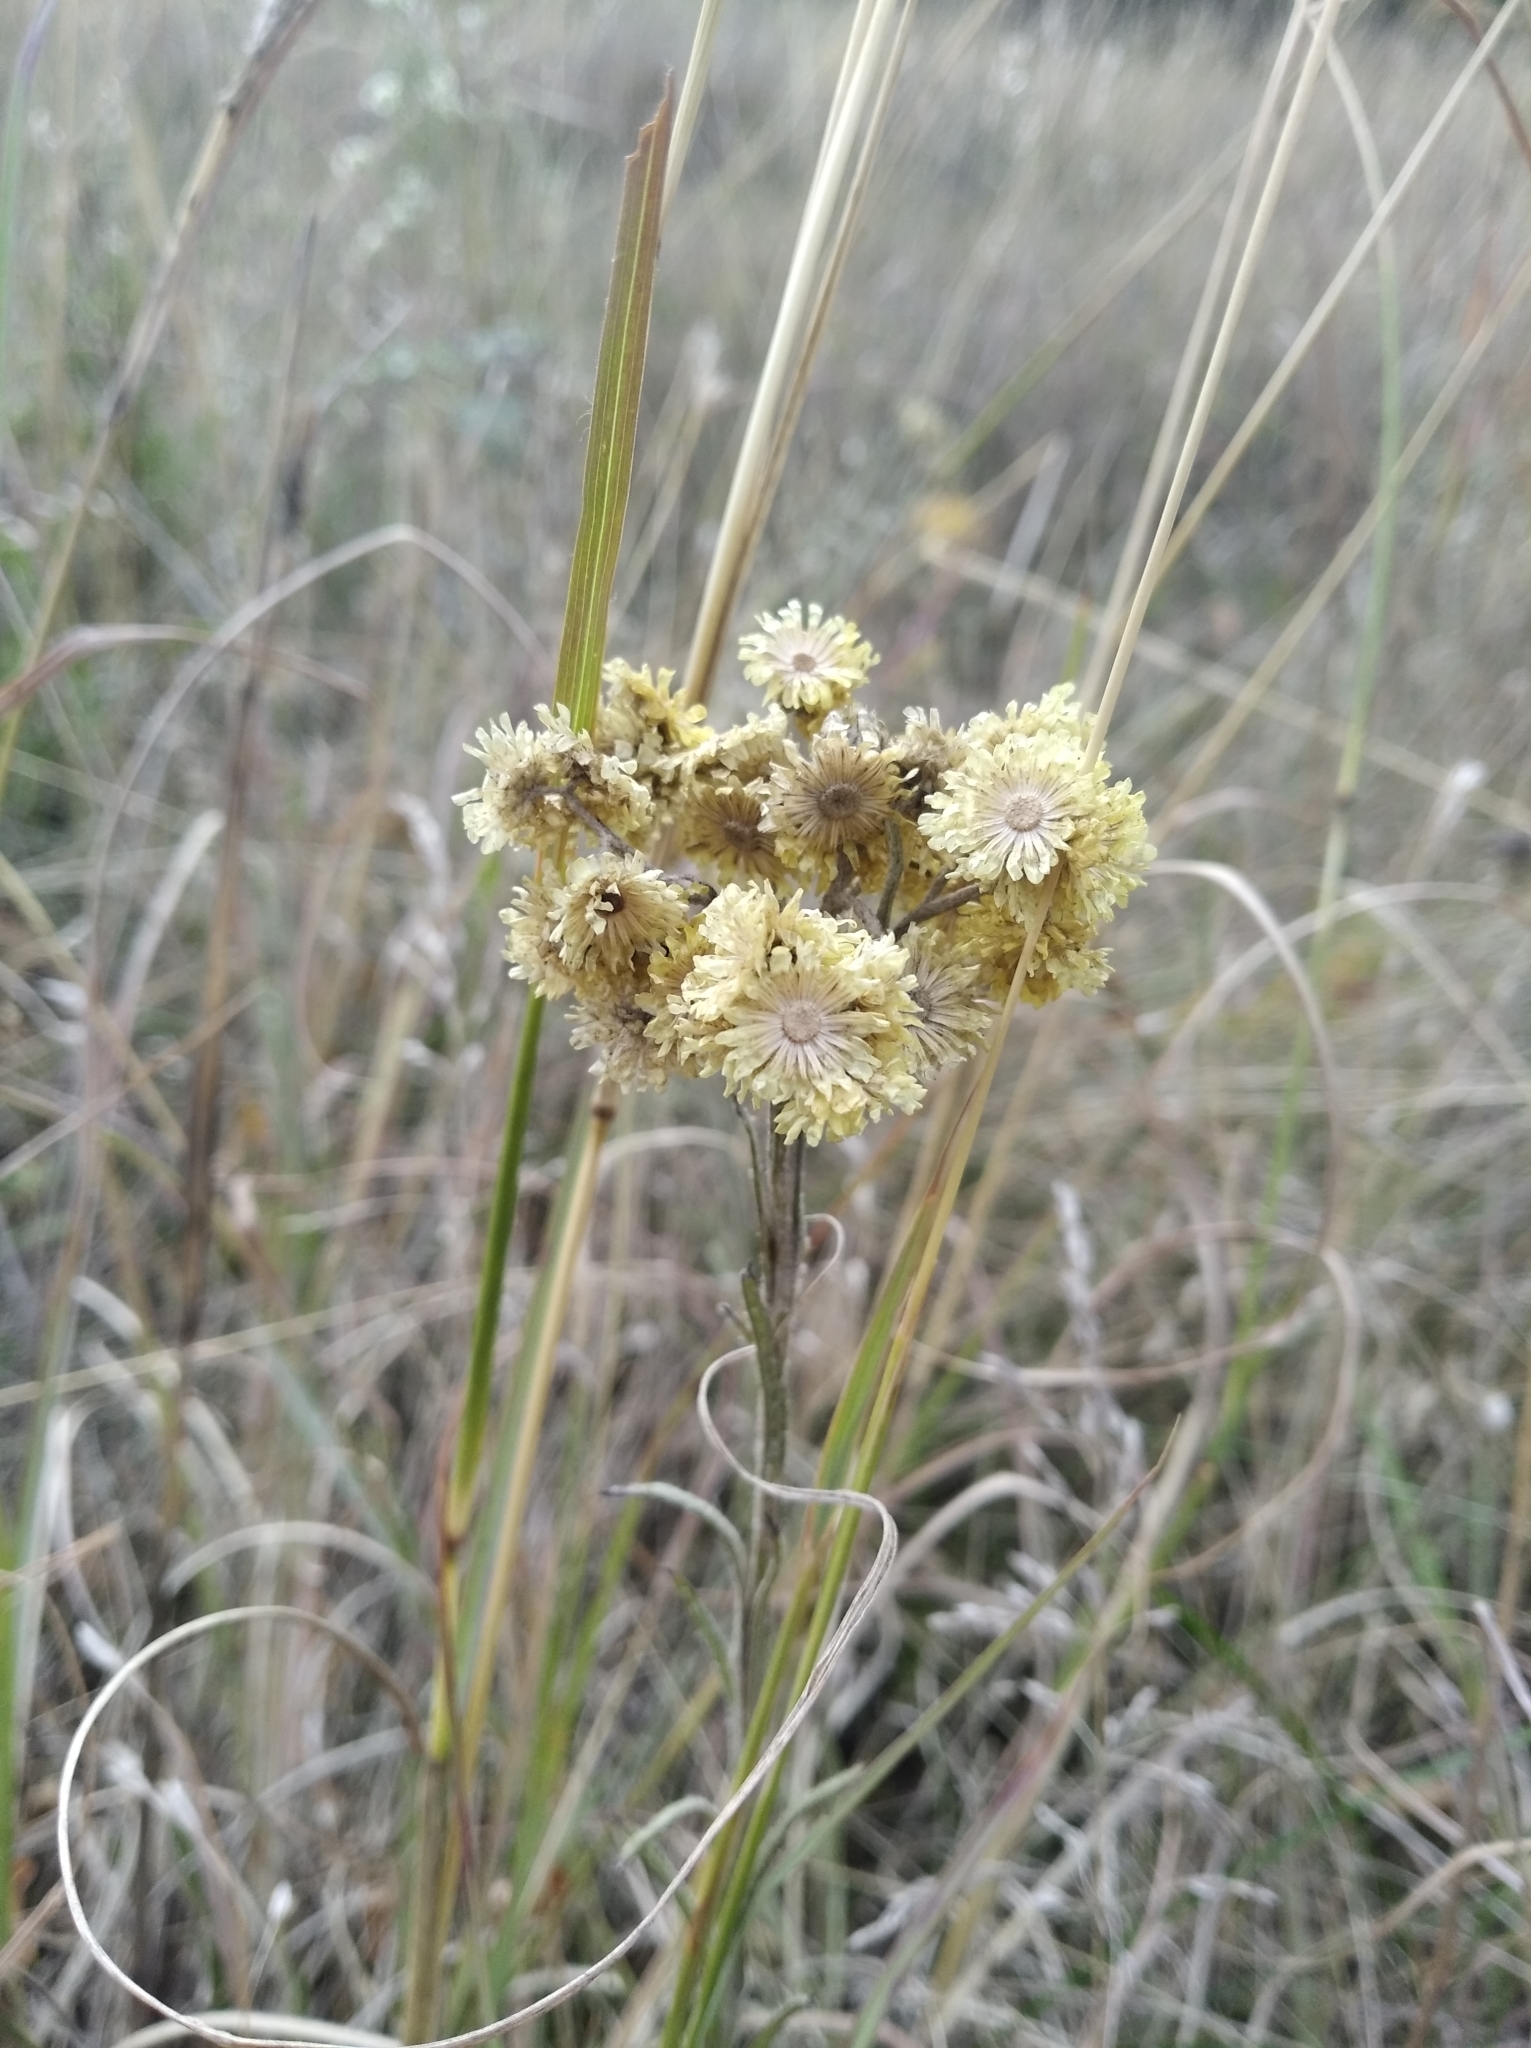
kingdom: Plantae
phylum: Tracheophyta
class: Magnoliopsida
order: Asterales
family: Asteraceae
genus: Helichrysum
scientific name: Helichrysum arenarium
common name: Strawflower
